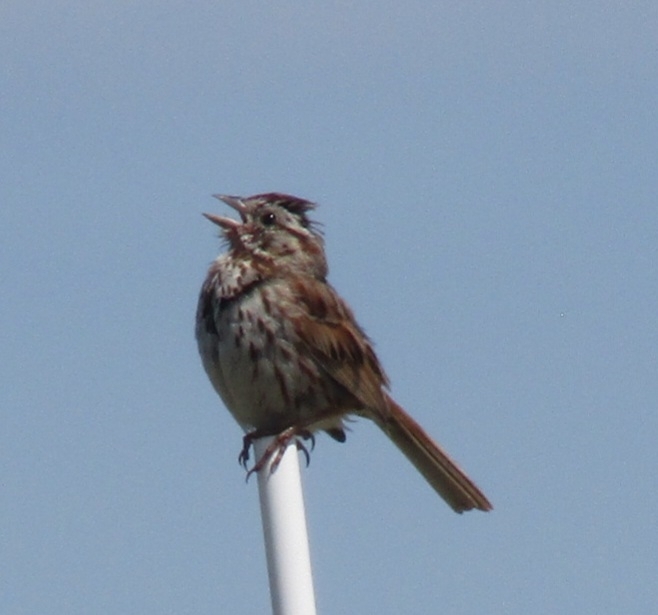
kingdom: Animalia
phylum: Chordata
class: Aves
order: Passeriformes
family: Passerellidae
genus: Melospiza
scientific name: Melospiza melodia
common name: Song sparrow
